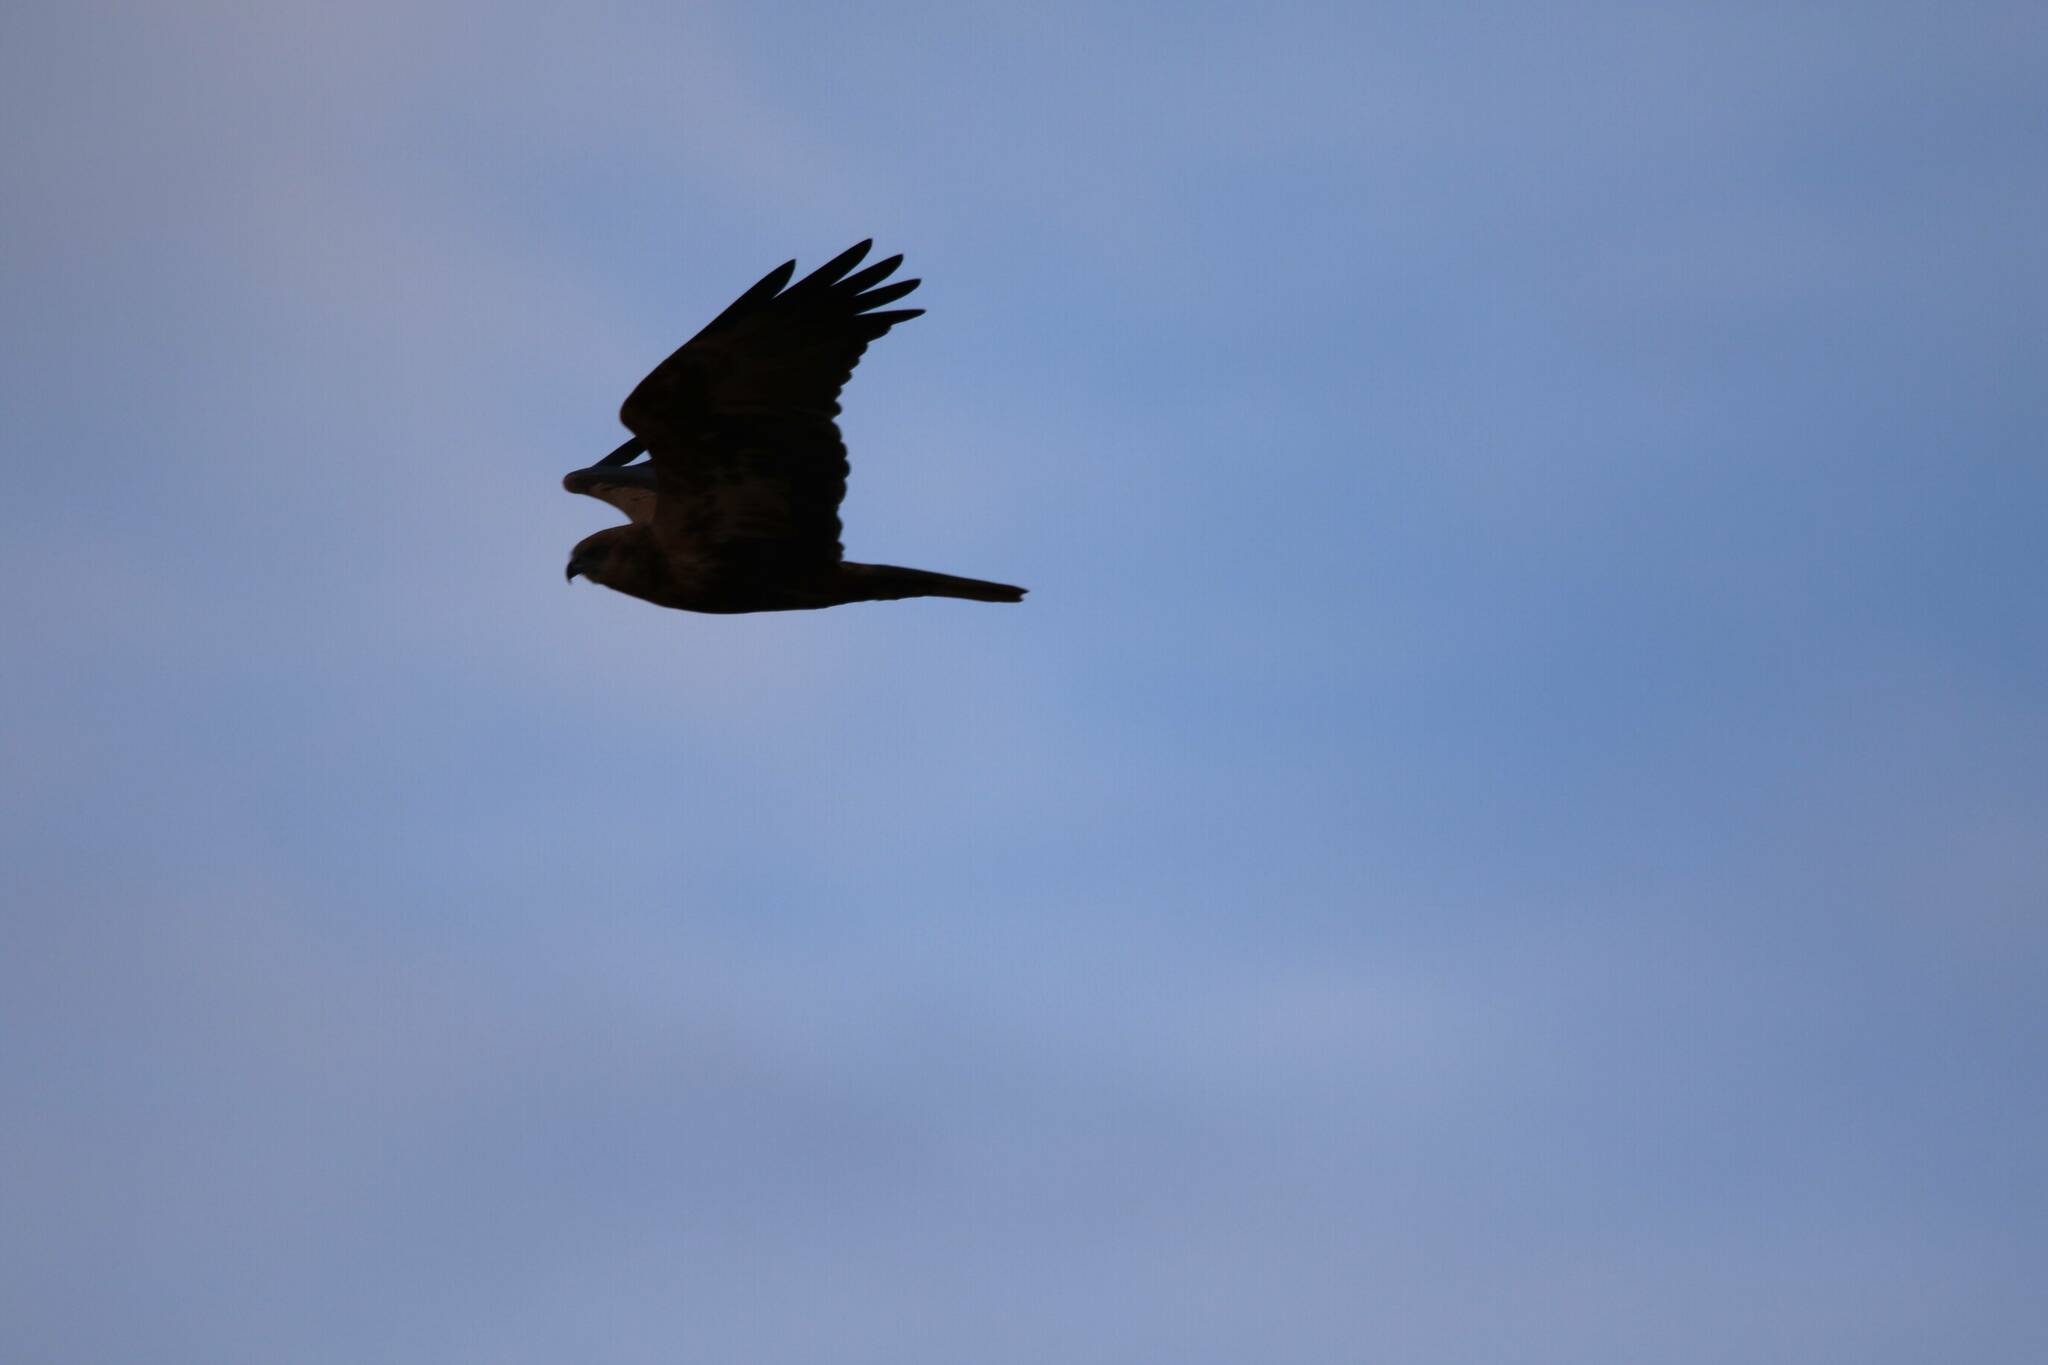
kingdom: Animalia
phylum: Chordata
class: Aves
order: Accipitriformes
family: Accipitridae
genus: Circus
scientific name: Circus aeruginosus
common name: Western marsh harrier
